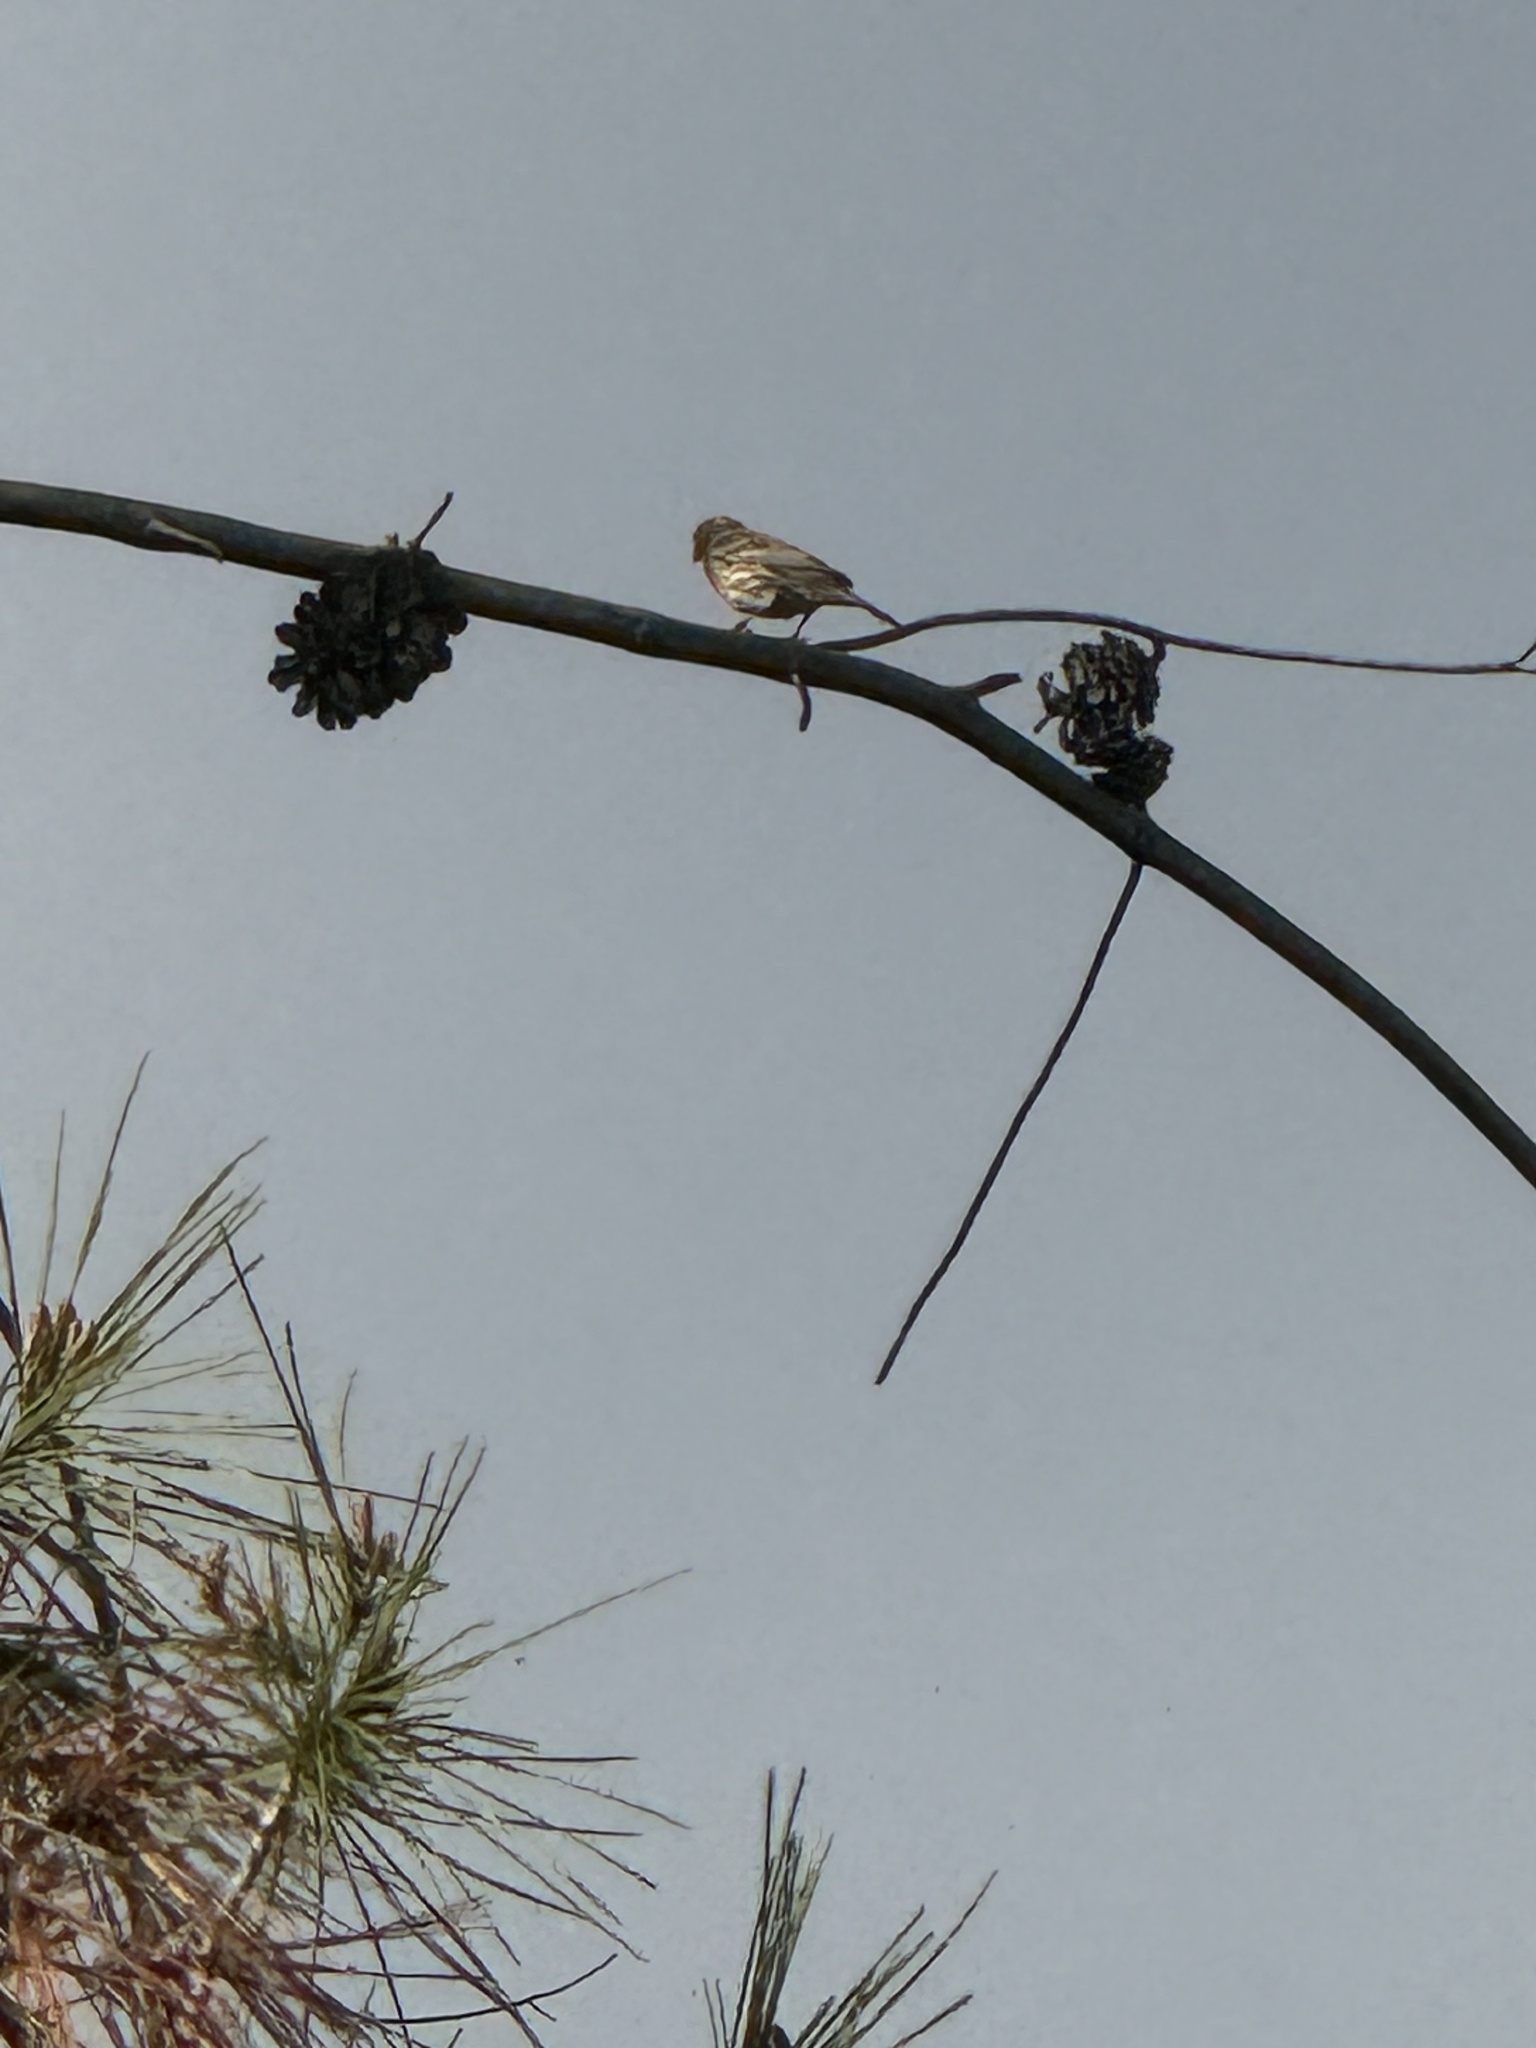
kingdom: Animalia
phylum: Chordata
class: Aves
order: Passeriformes
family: Fringillidae
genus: Haemorhous
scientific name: Haemorhous mexicanus
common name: House finch
